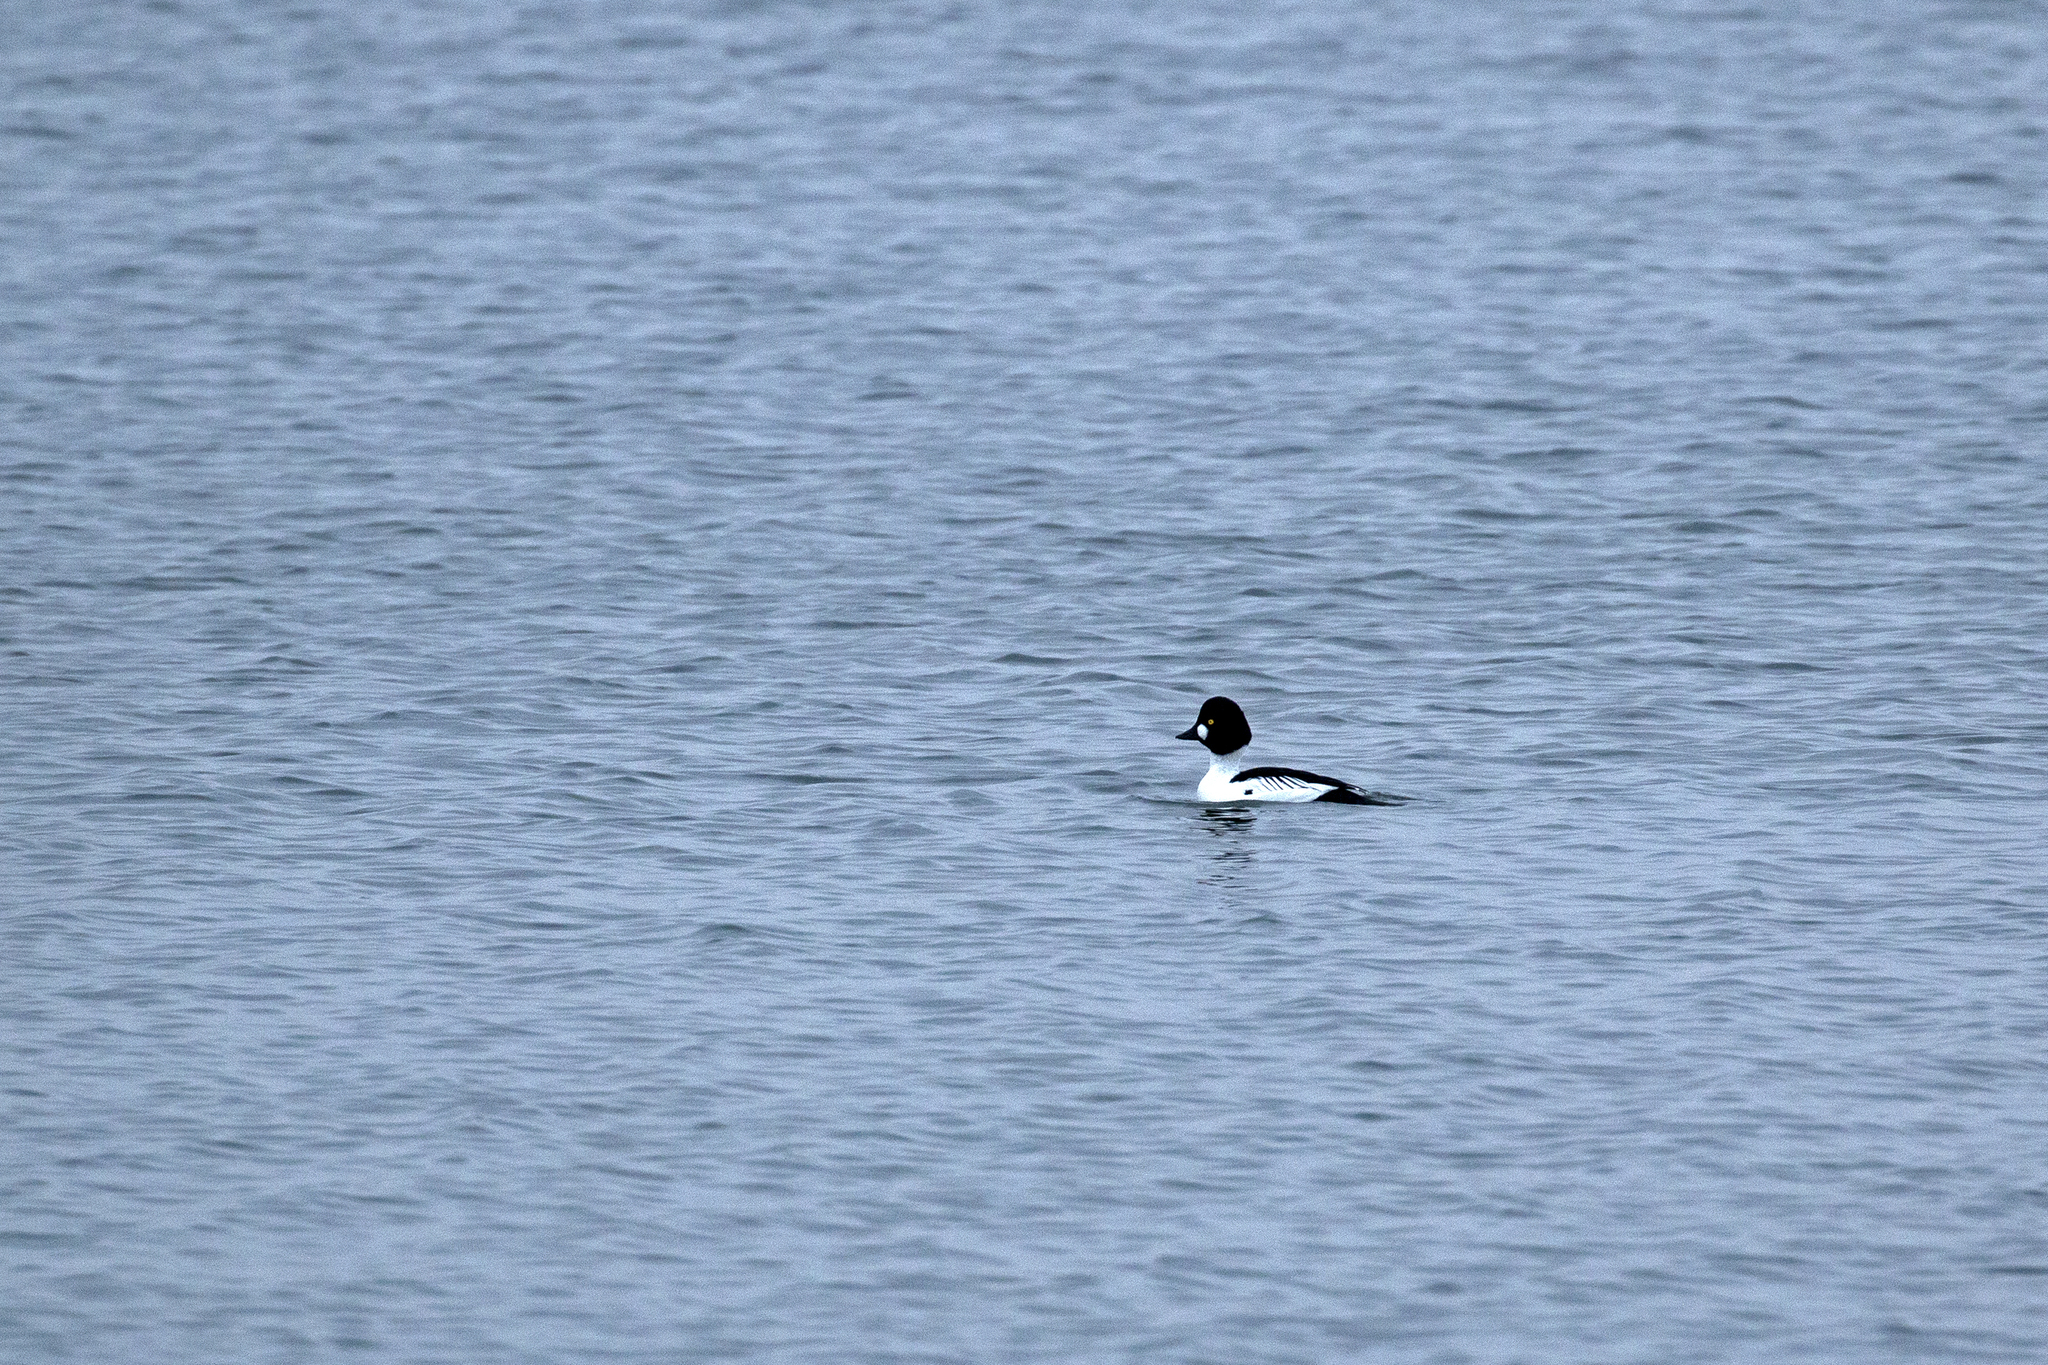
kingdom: Animalia
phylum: Chordata
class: Aves
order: Anseriformes
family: Anatidae
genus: Bucephala
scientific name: Bucephala clangula
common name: Common goldeneye
